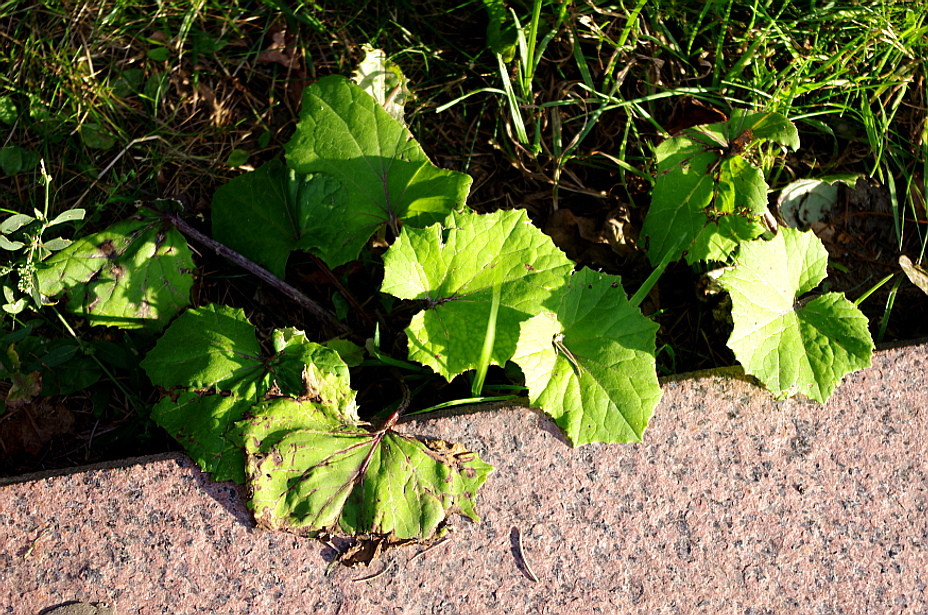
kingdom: Plantae
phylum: Tracheophyta
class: Magnoliopsida
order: Asterales
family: Asteraceae
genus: Tussilago
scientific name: Tussilago farfara
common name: Coltsfoot
